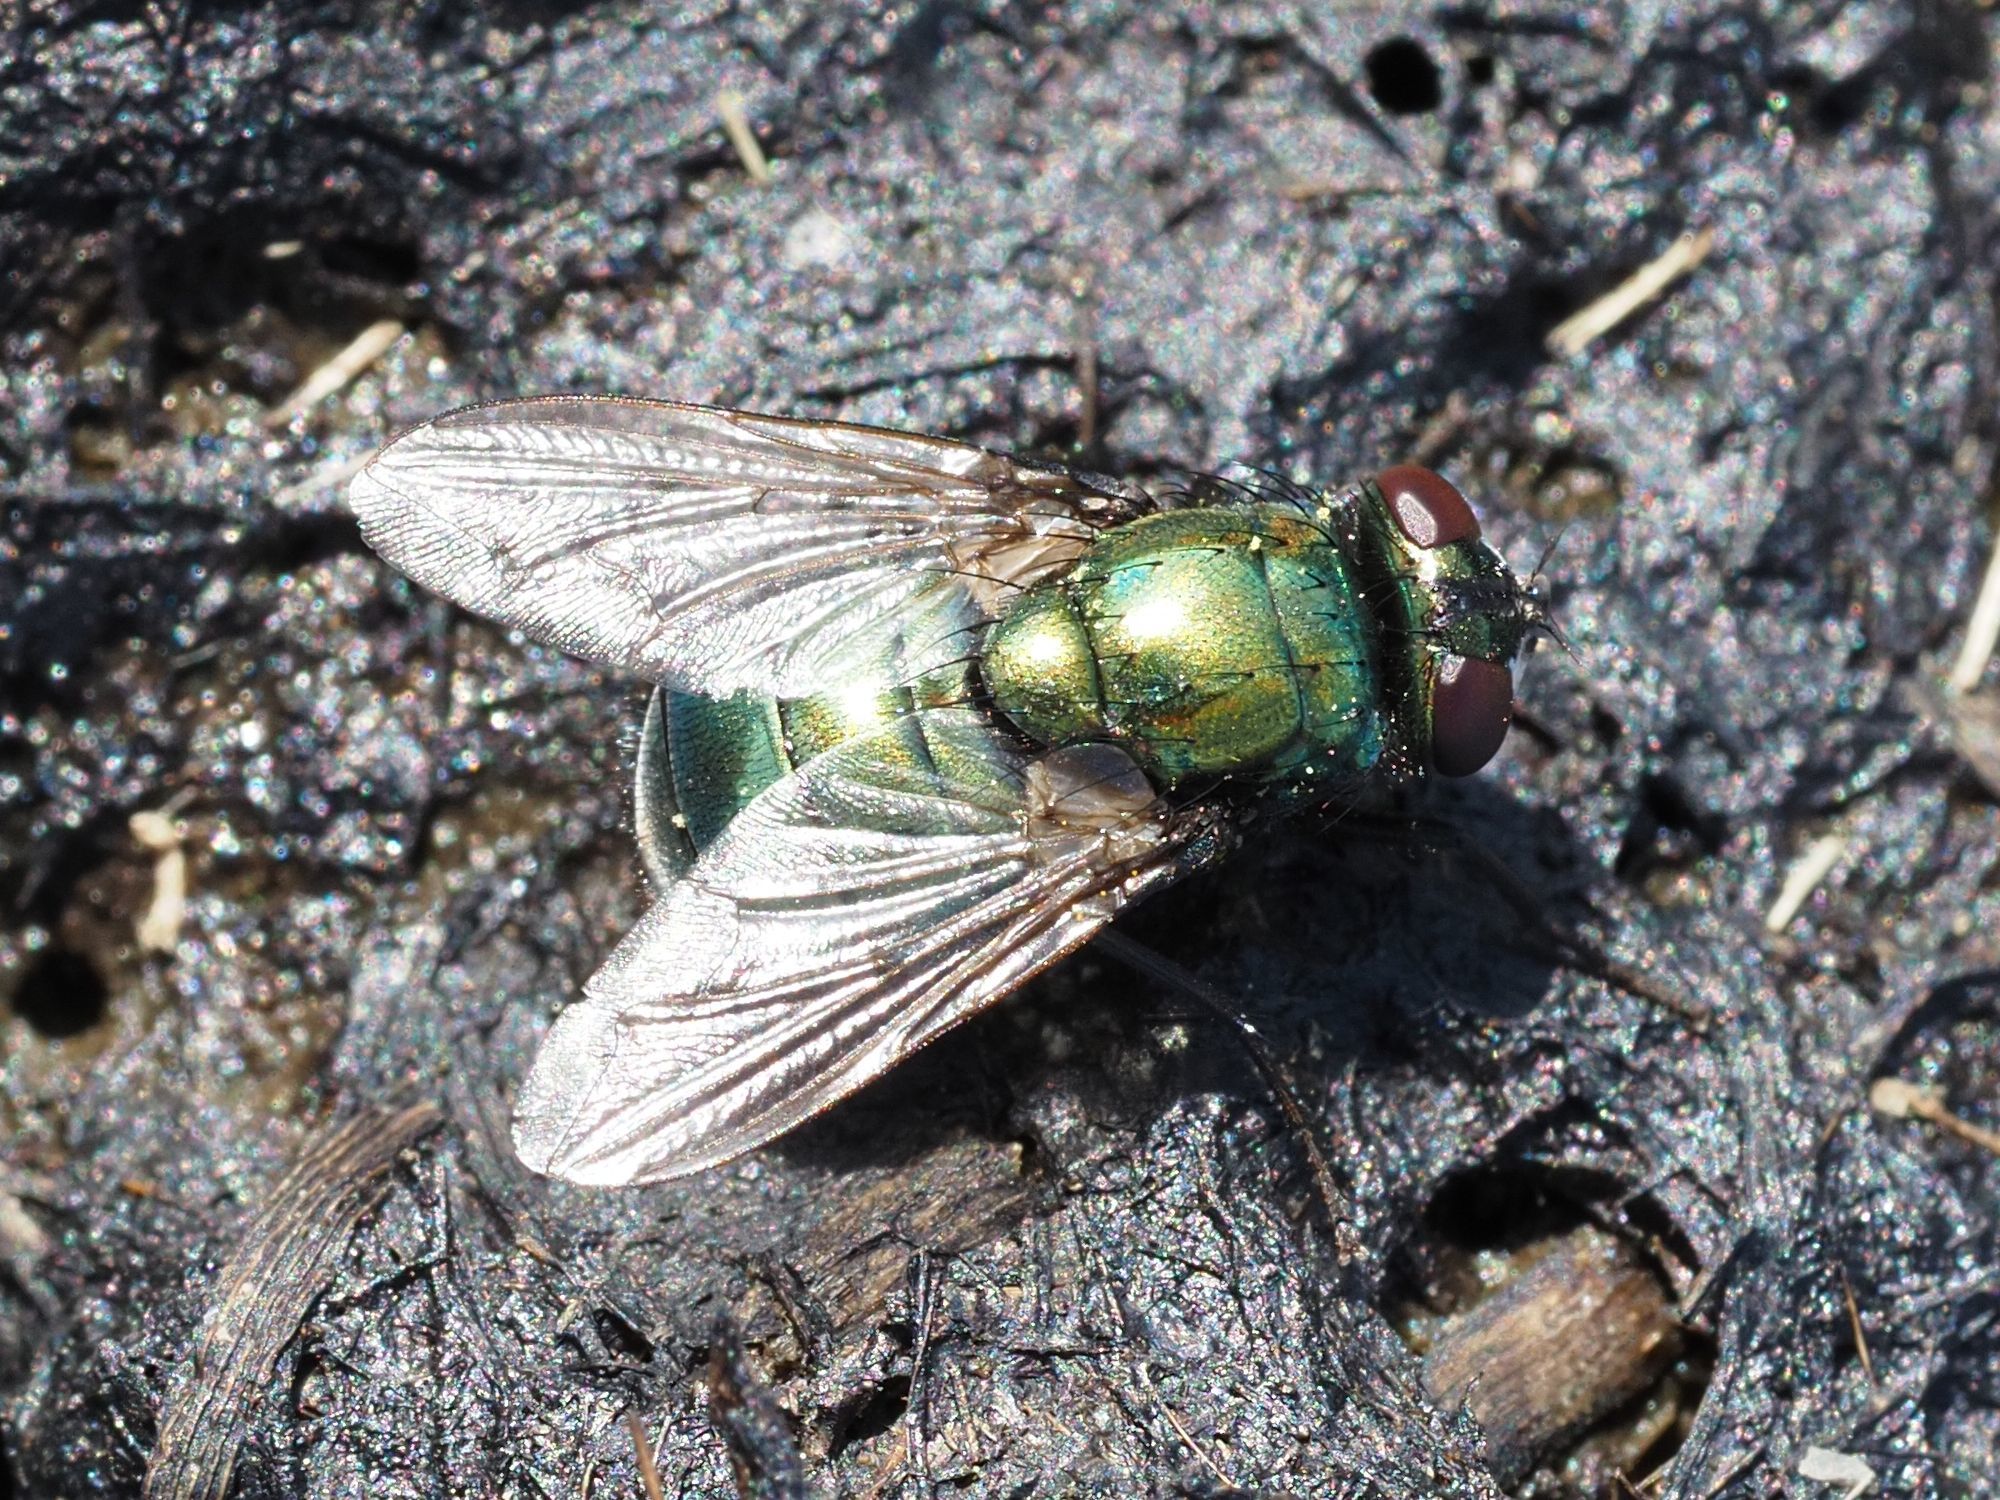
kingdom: Animalia
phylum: Arthropoda
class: Insecta
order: Diptera
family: Muscidae
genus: Neomyia
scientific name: Neomyia cornicina
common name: House fly
